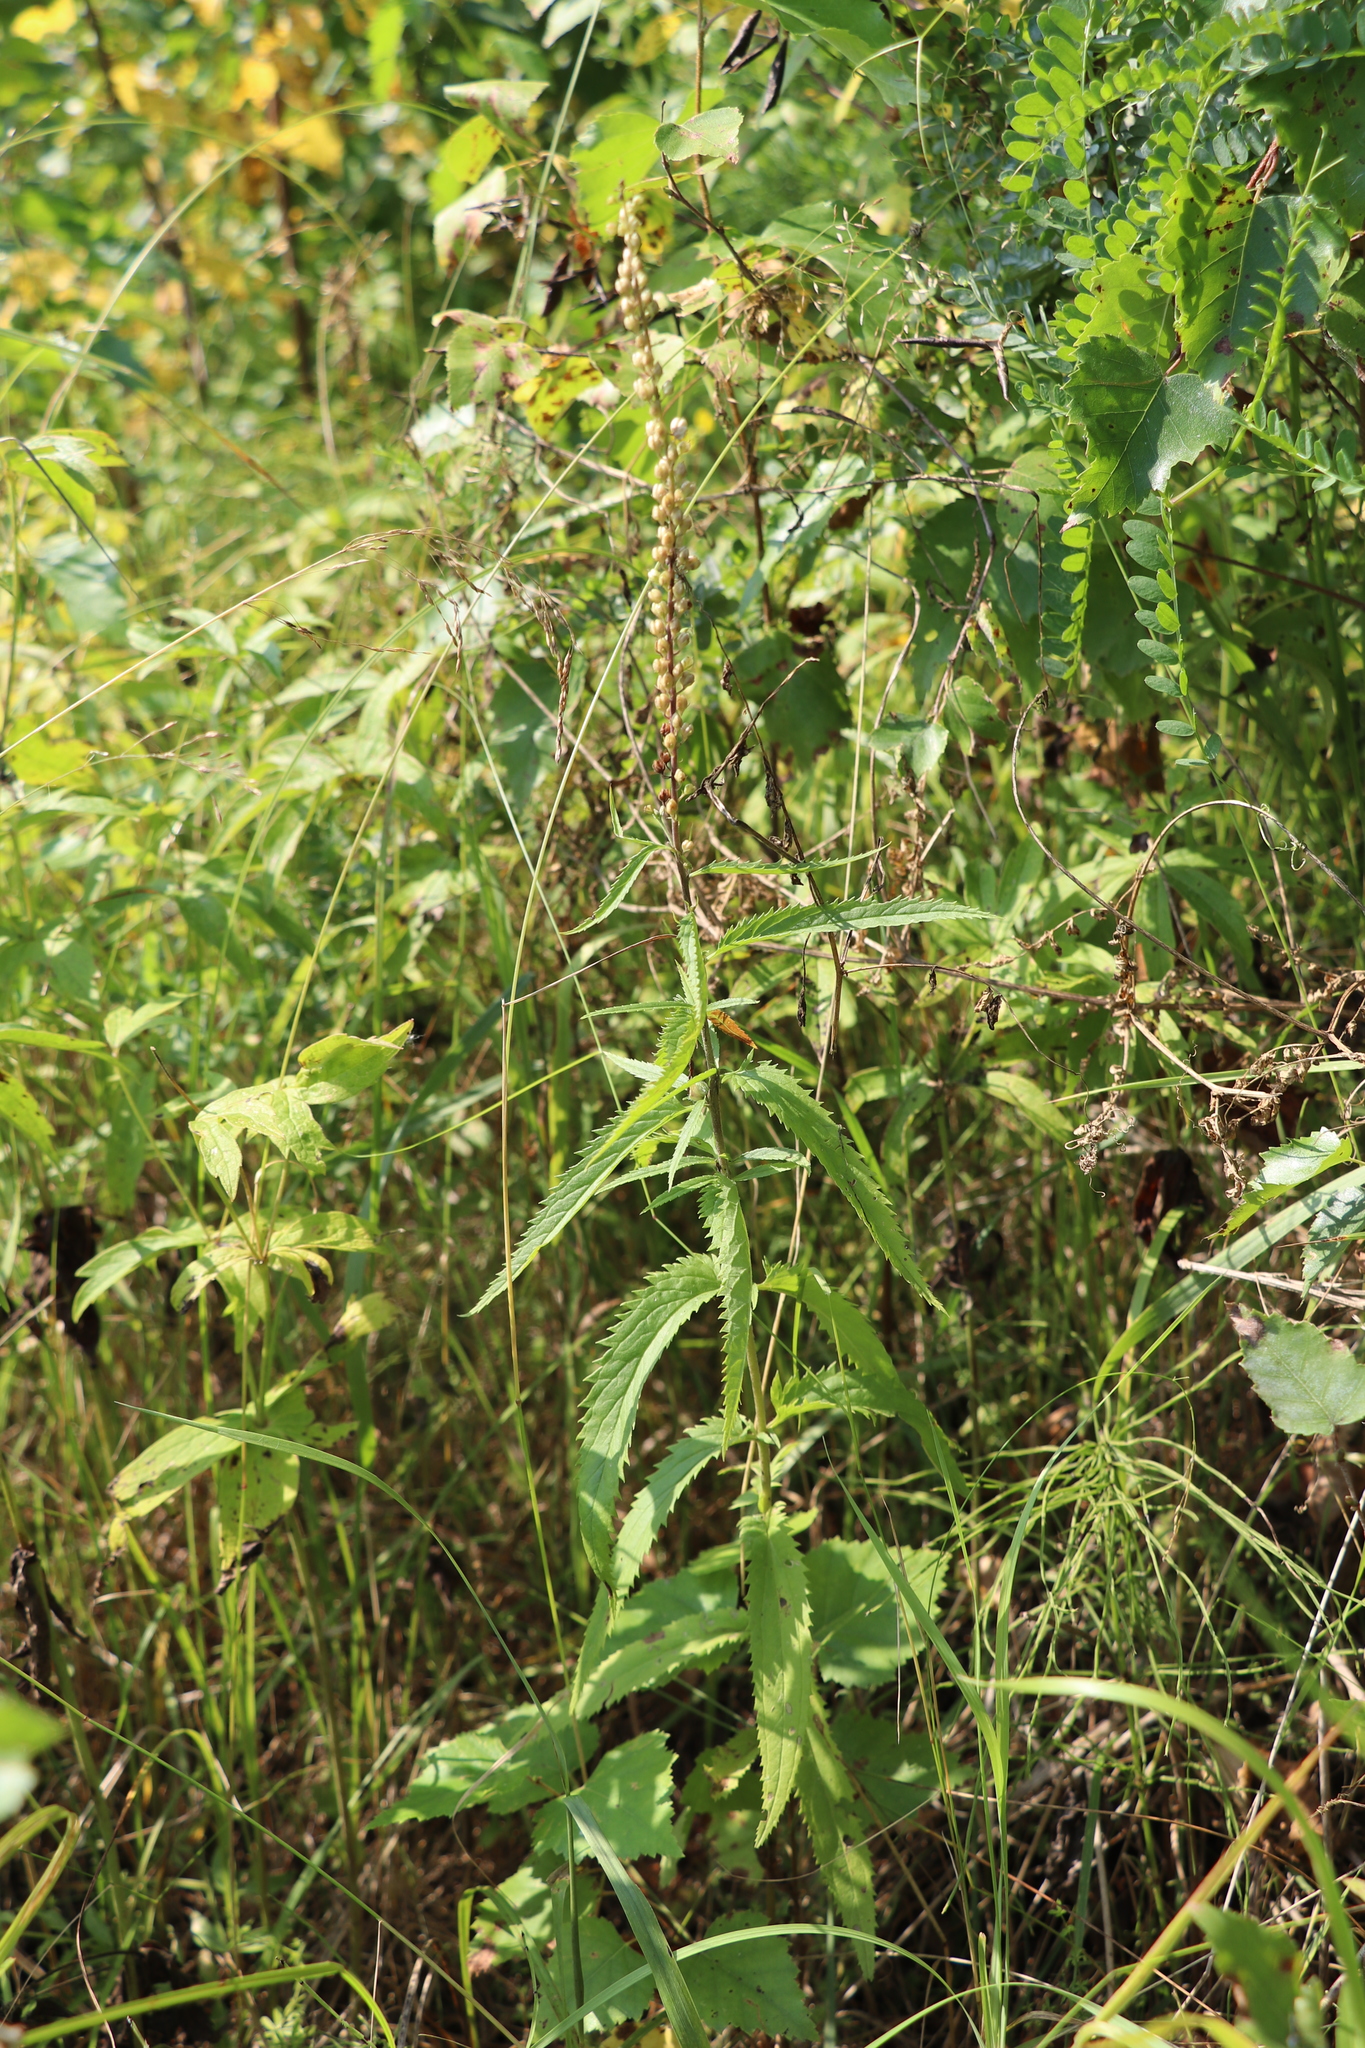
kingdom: Plantae
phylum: Tracheophyta
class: Magnoliopsida
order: Lamiales
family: Plantaginaceae
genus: Veronica
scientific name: Veronica longifolia
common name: Garden speedwell
